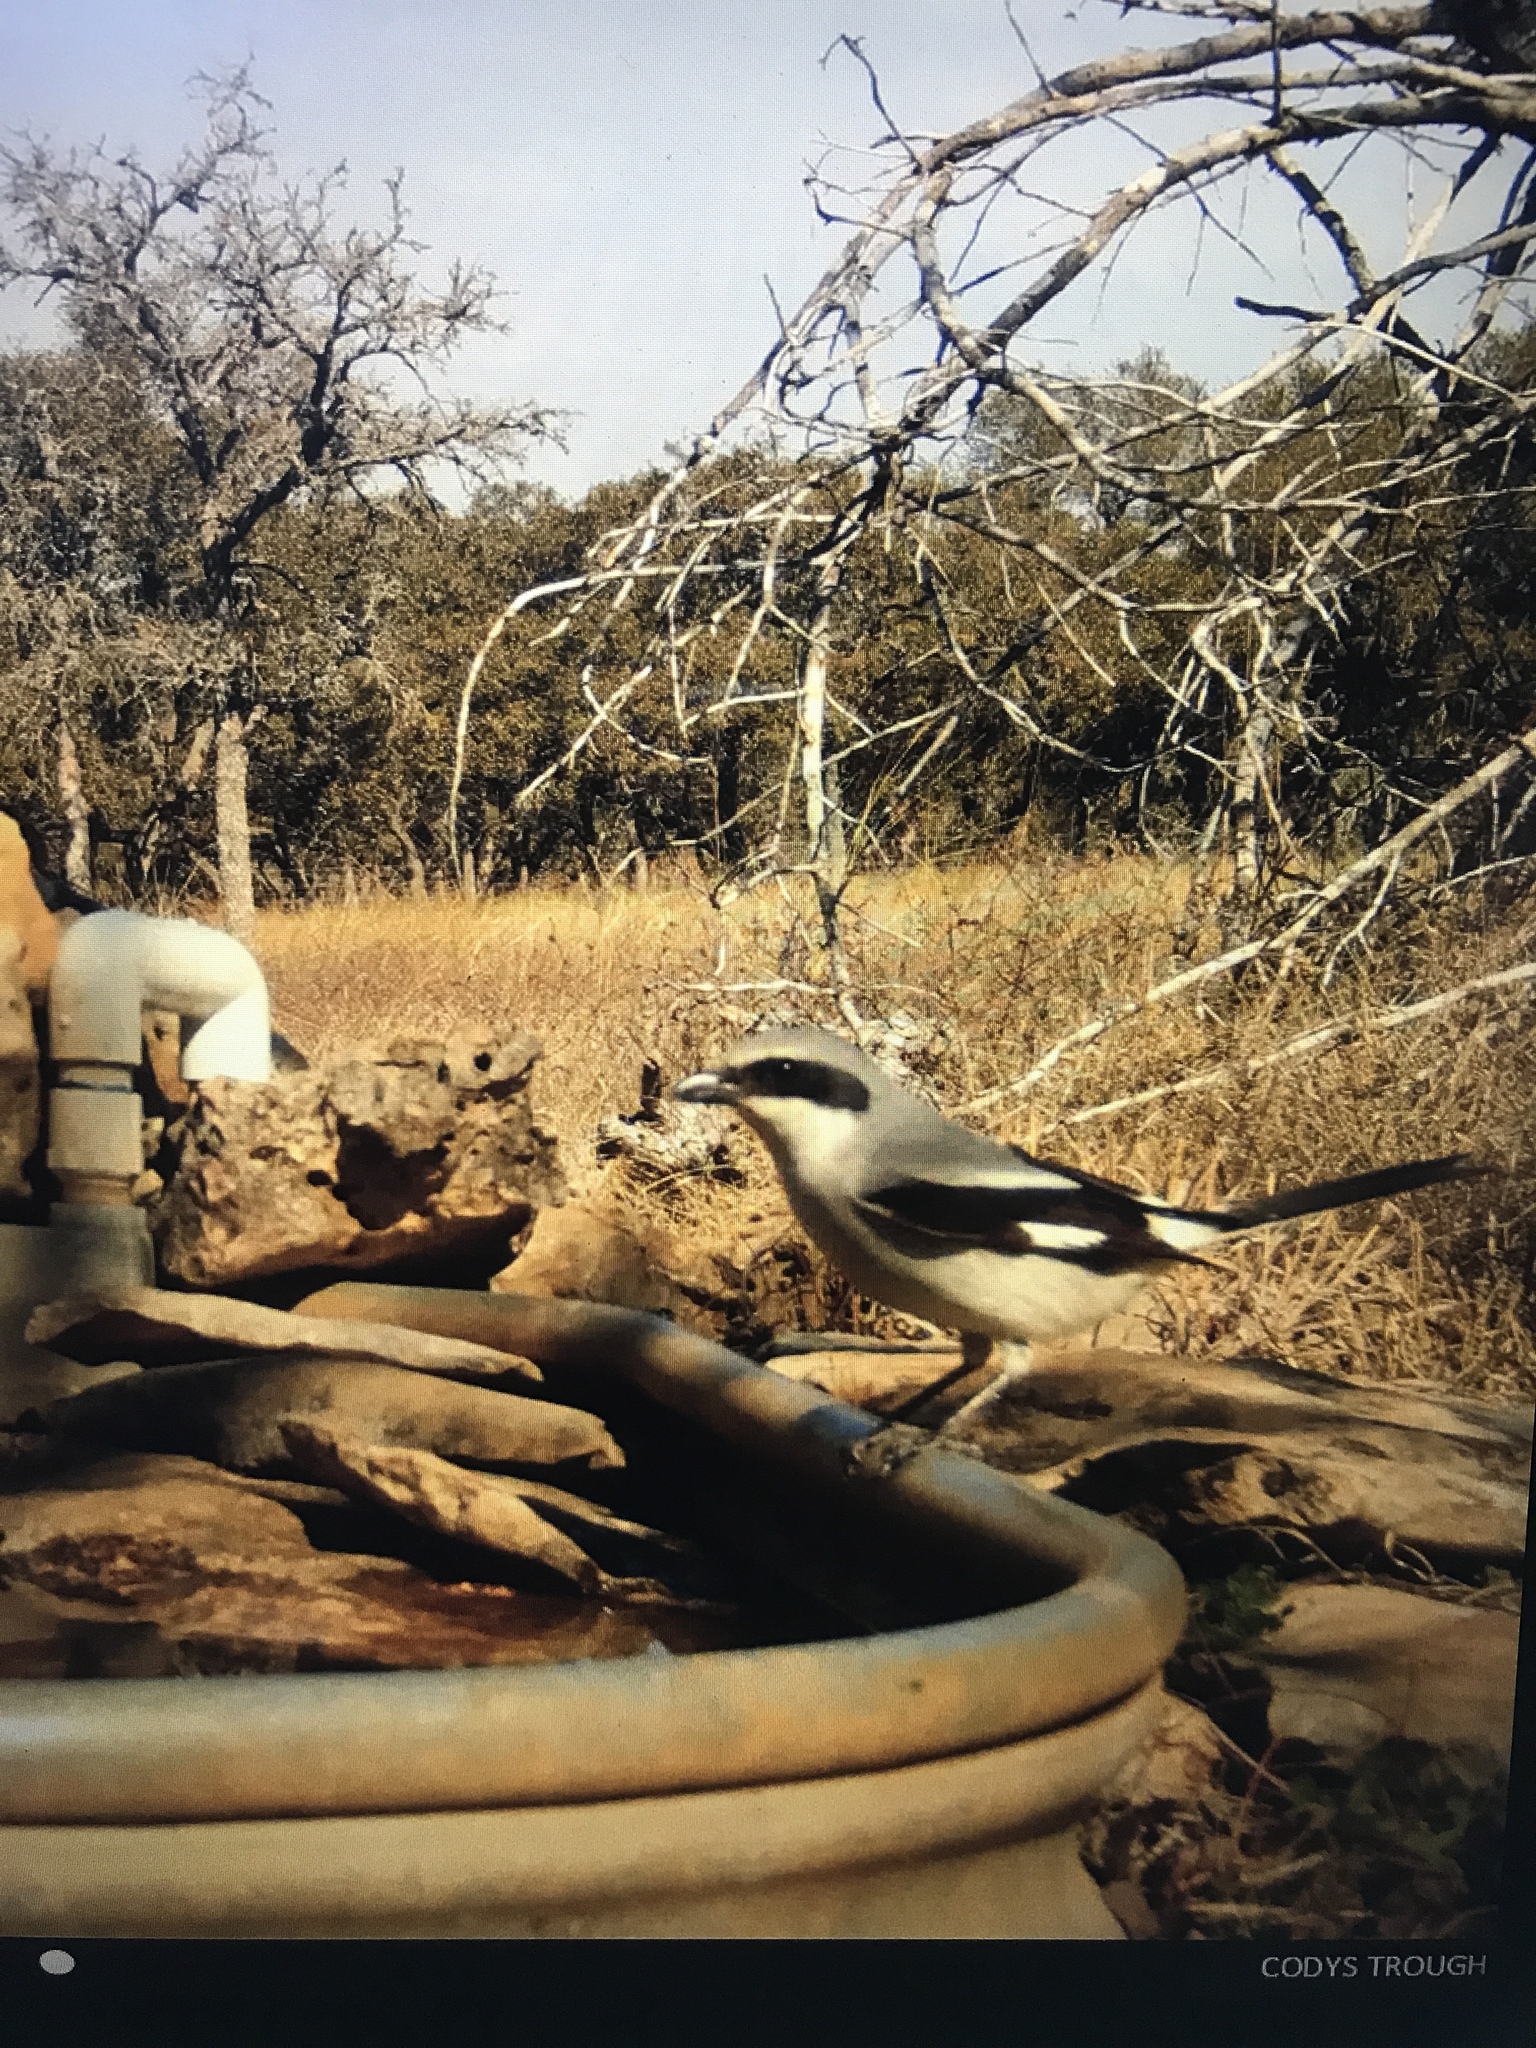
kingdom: Animalia
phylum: Chordata
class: Aves
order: Passeriformes
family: Laniidae
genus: Lanius
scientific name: Lanius ludovicianus
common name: Loggerhead shrike
